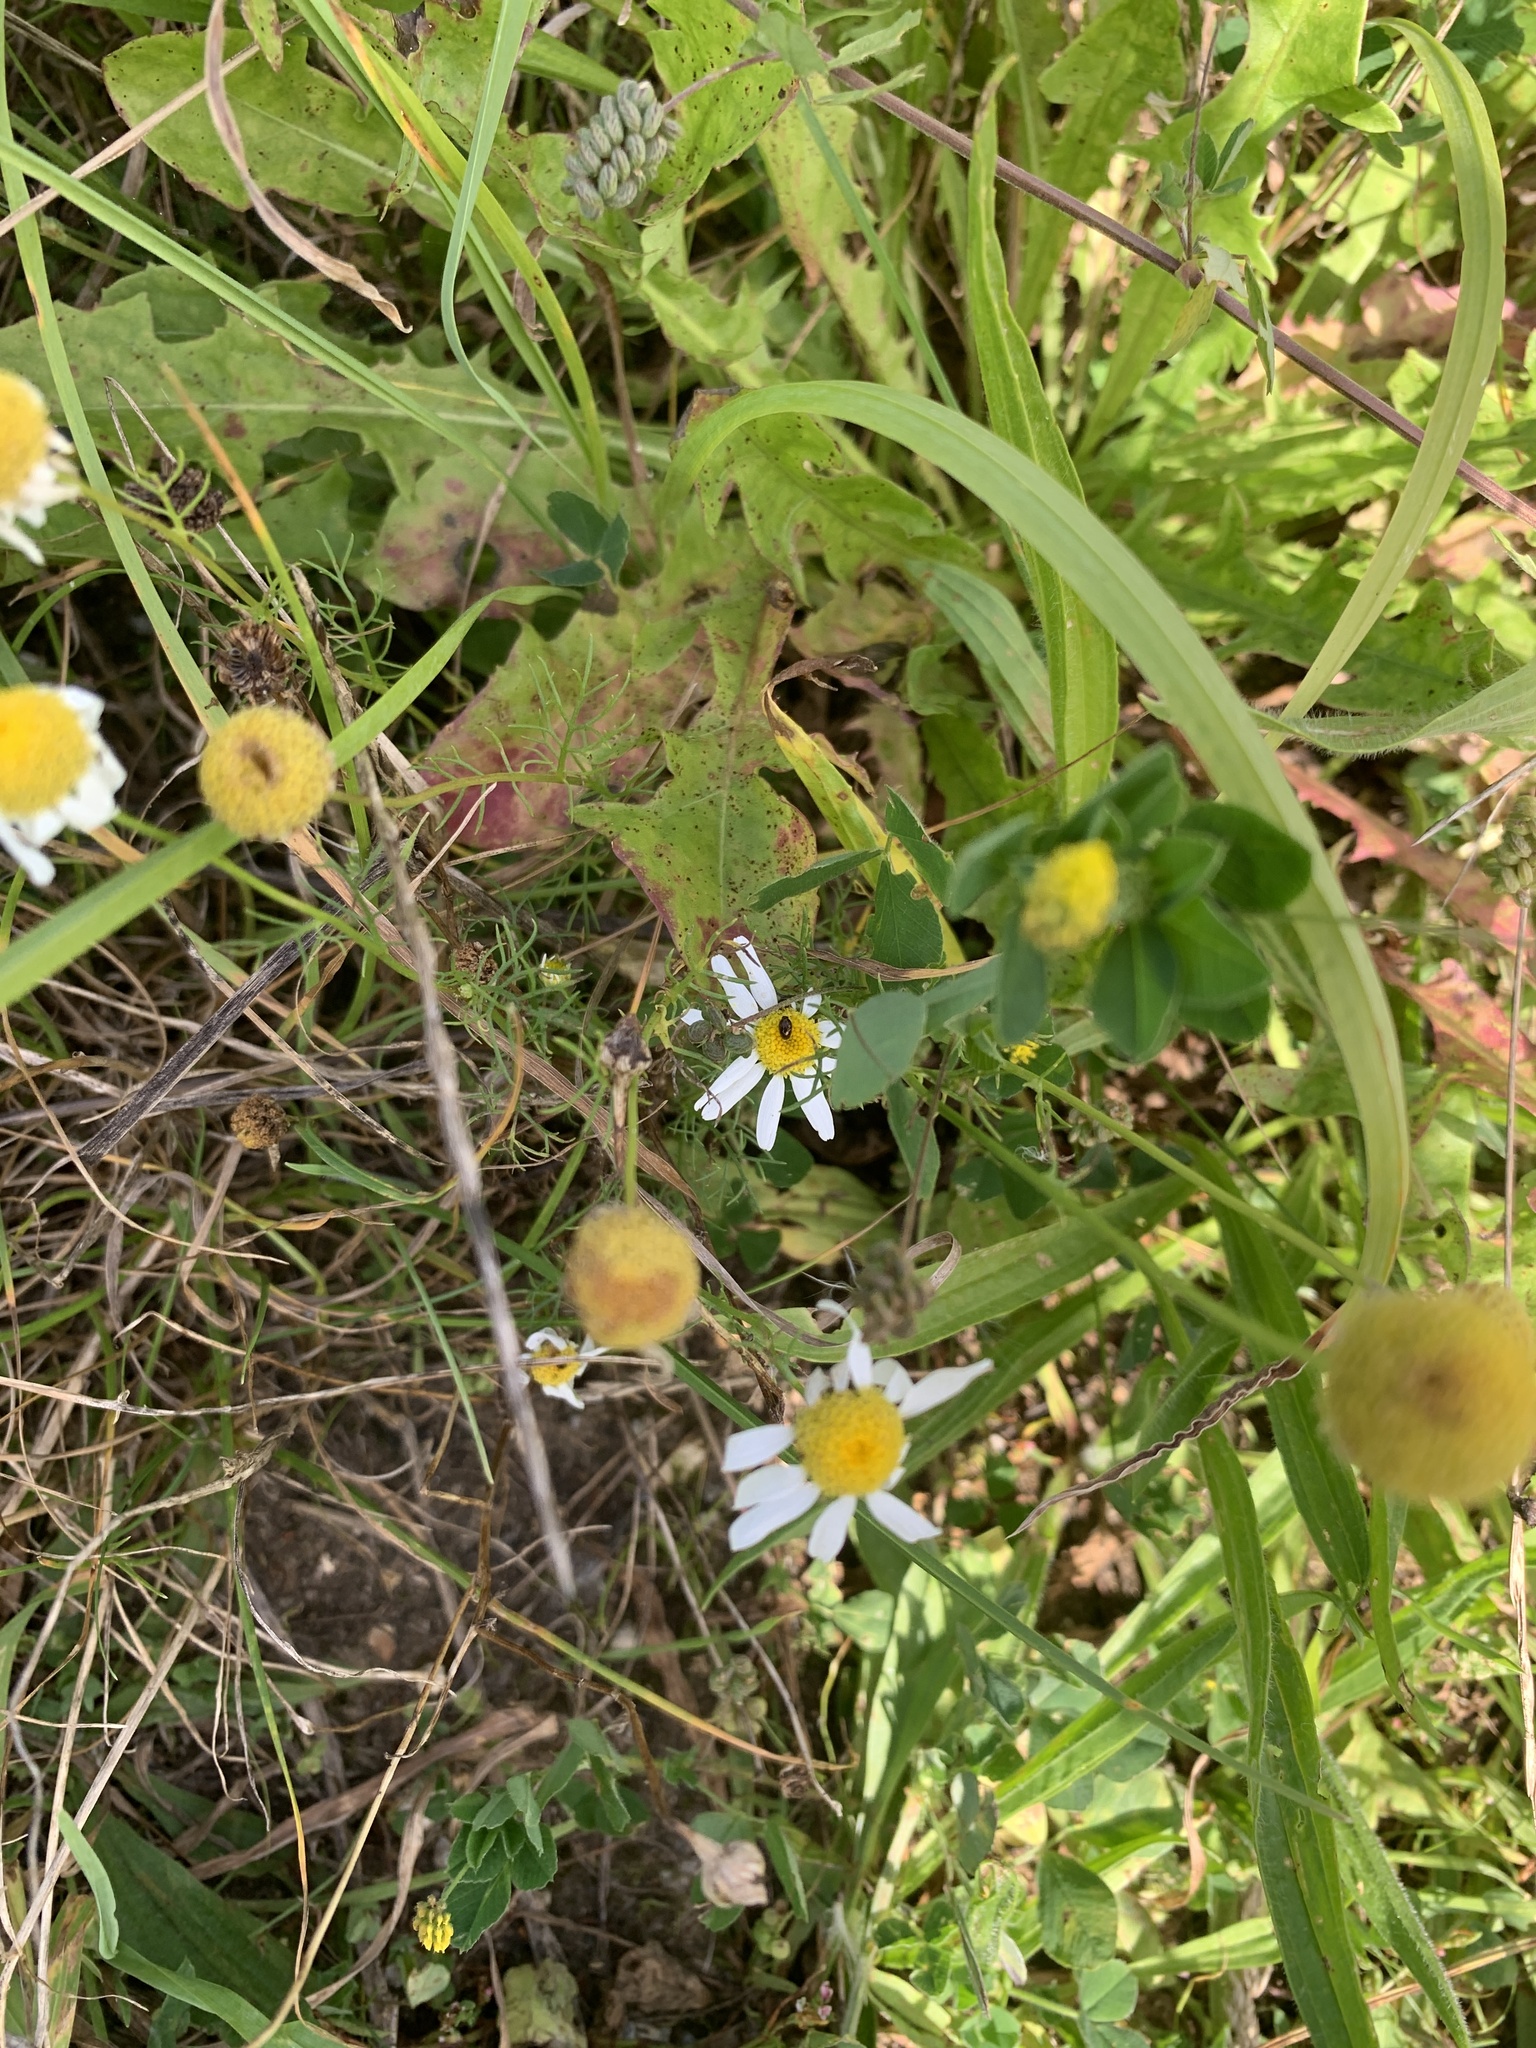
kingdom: Plantae
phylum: Tracheophyta
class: Magnoliopsida
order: Asterales
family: Asteraceae
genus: Tripleurospermum
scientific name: Tripleurospermum inodorum
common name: Scentless mayweed
